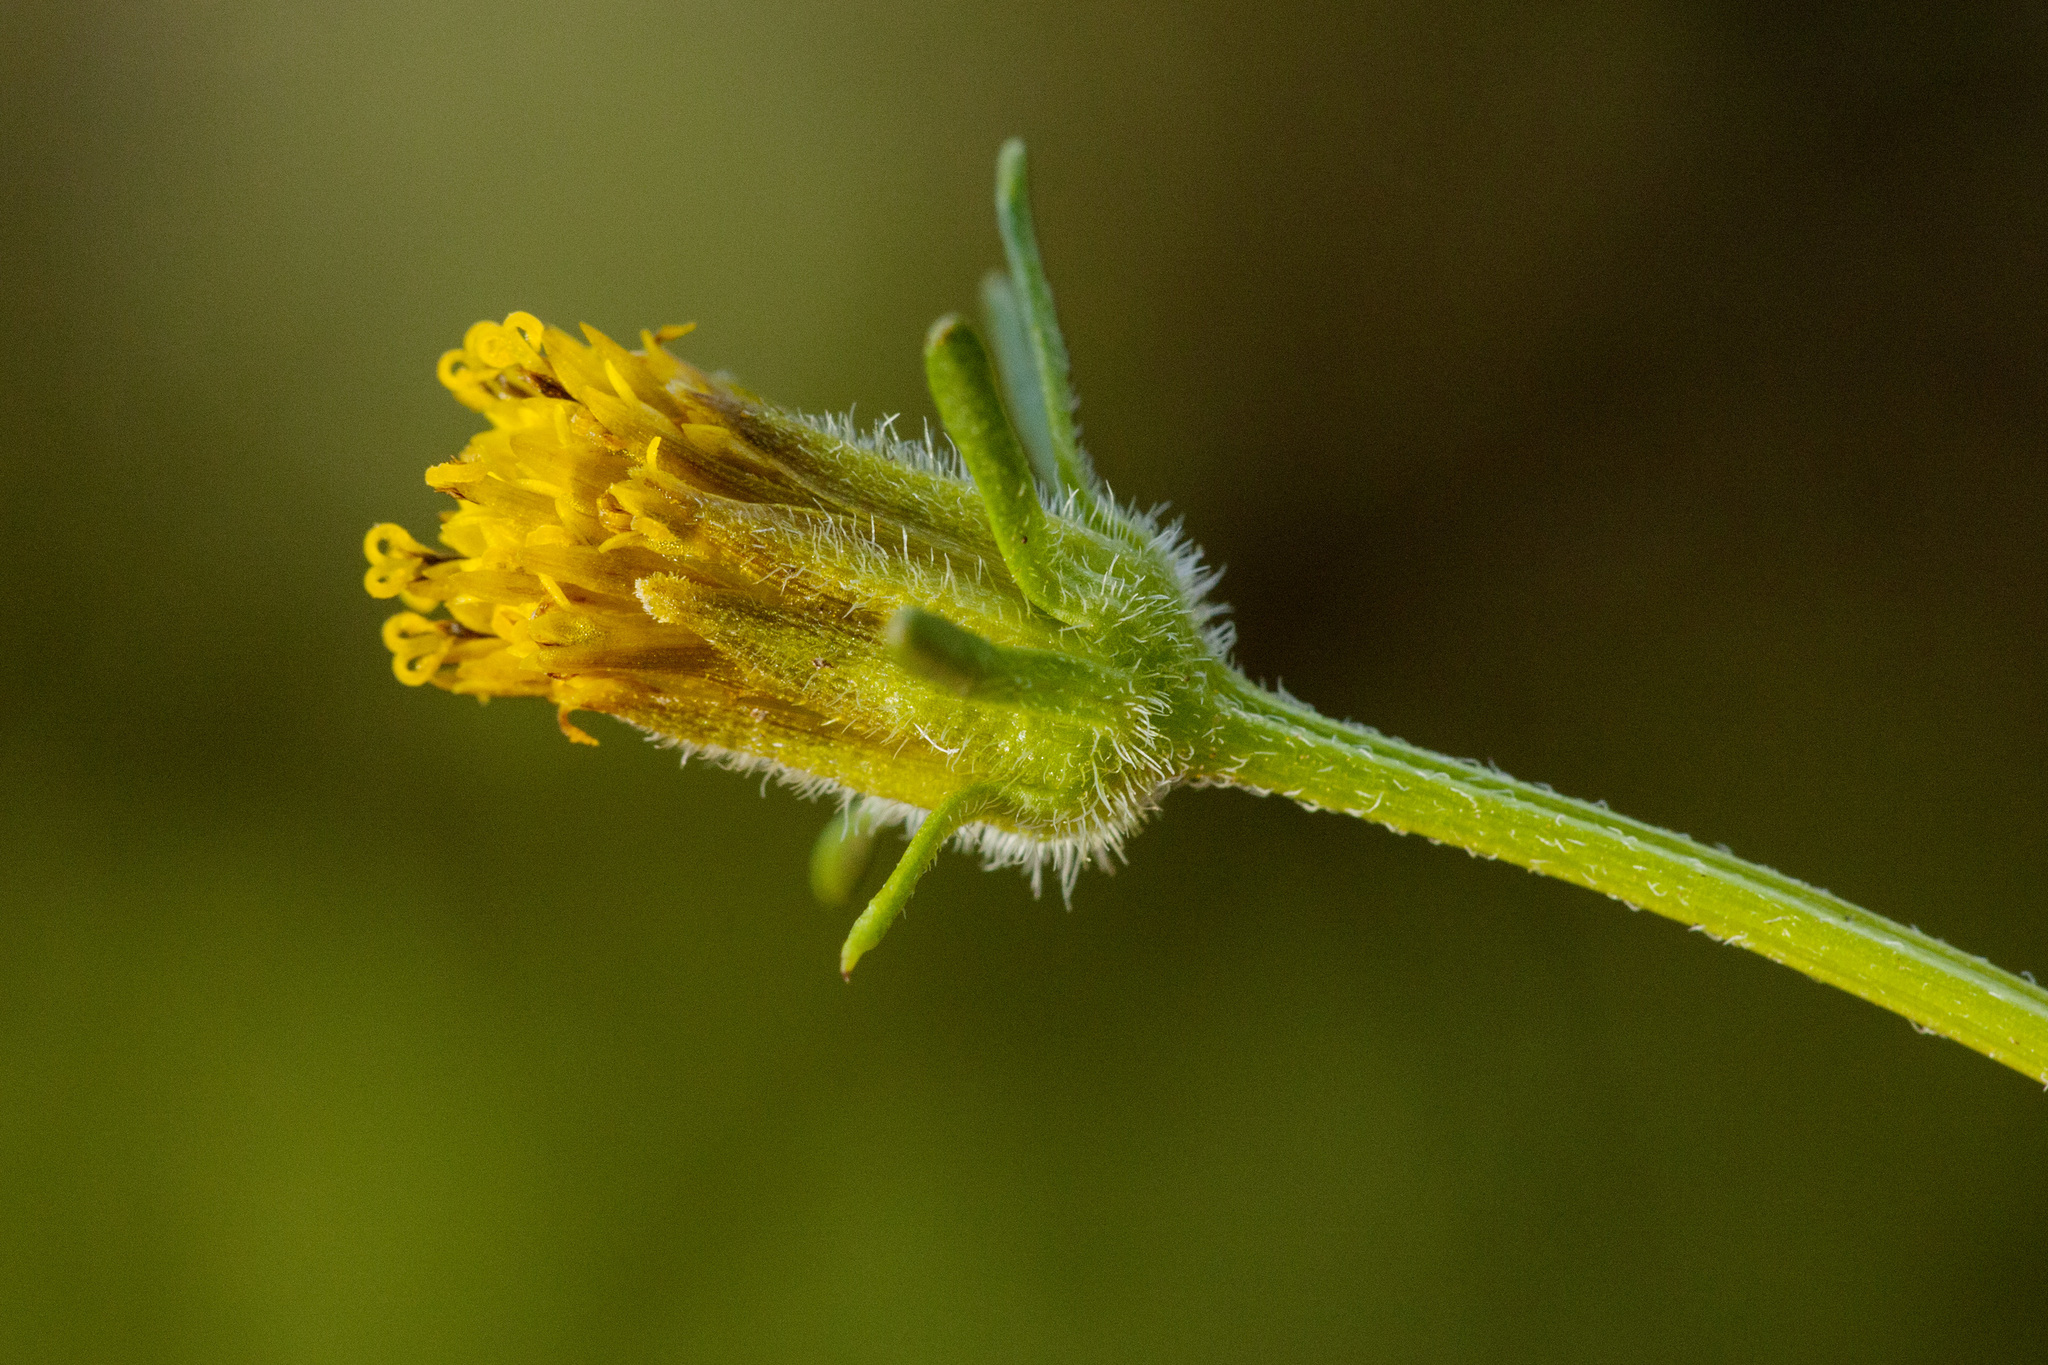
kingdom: Plantae
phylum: Tracheophyta
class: Magnoliopsida
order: Asterales
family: Asteraceae
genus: Bidens
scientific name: Bidens tenuisecta
